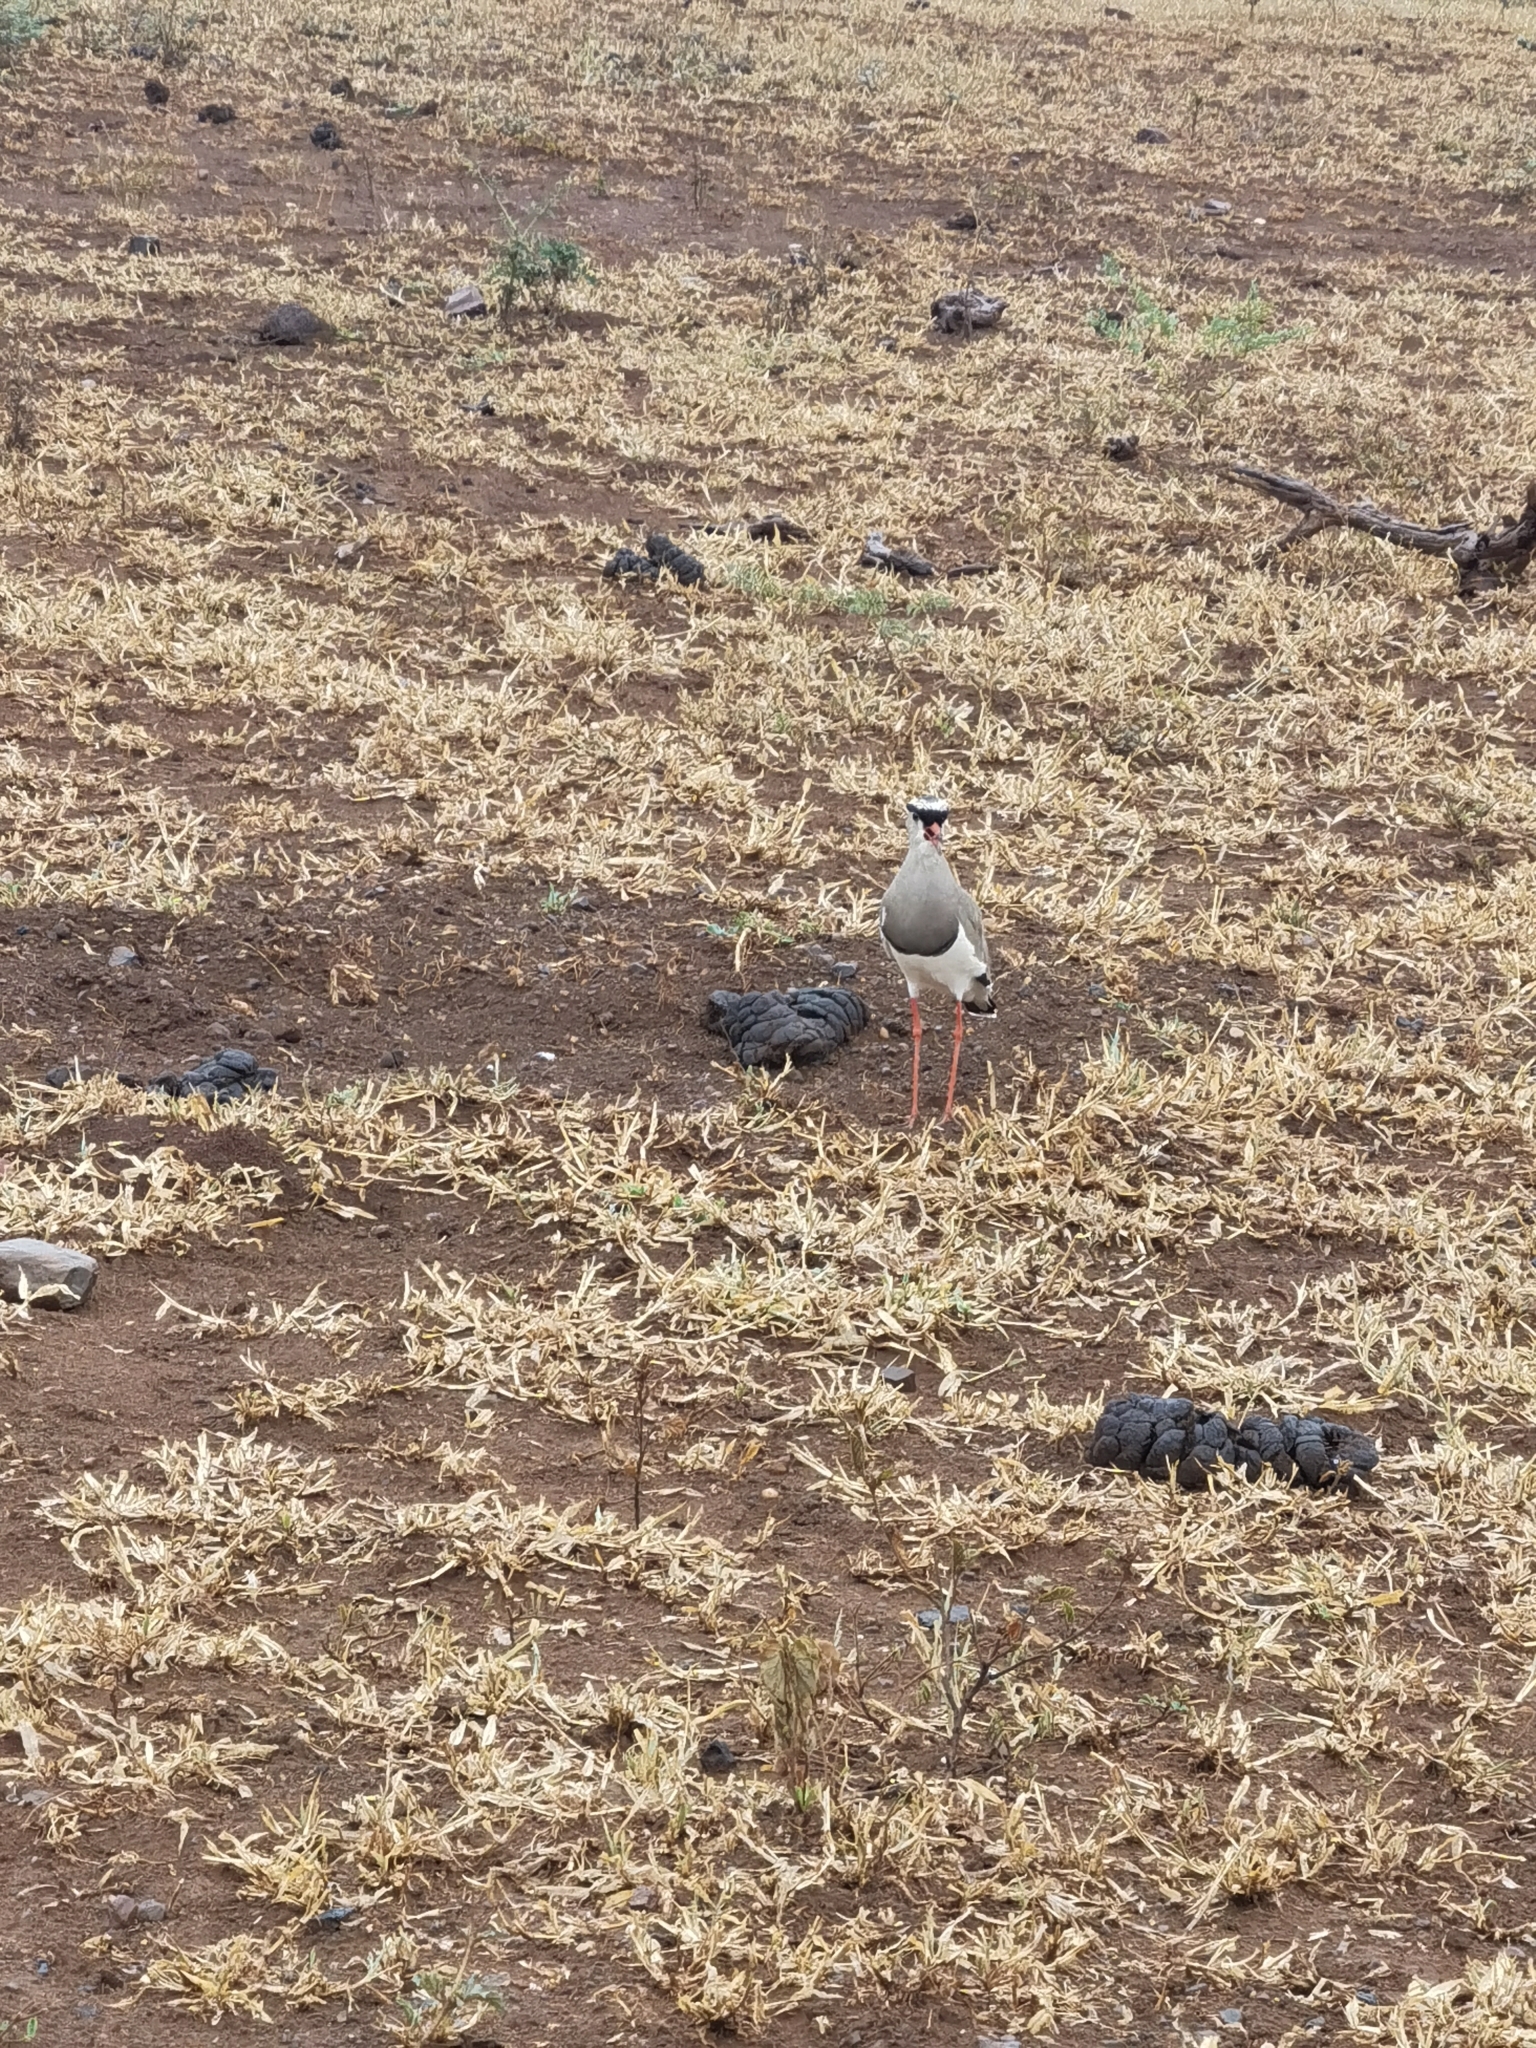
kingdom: Animalia
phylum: Chordata
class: Aves
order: Charadriiformes
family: Charadriidae
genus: Vanellus
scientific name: Vanellus coronatus
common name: Crowned lapwing
